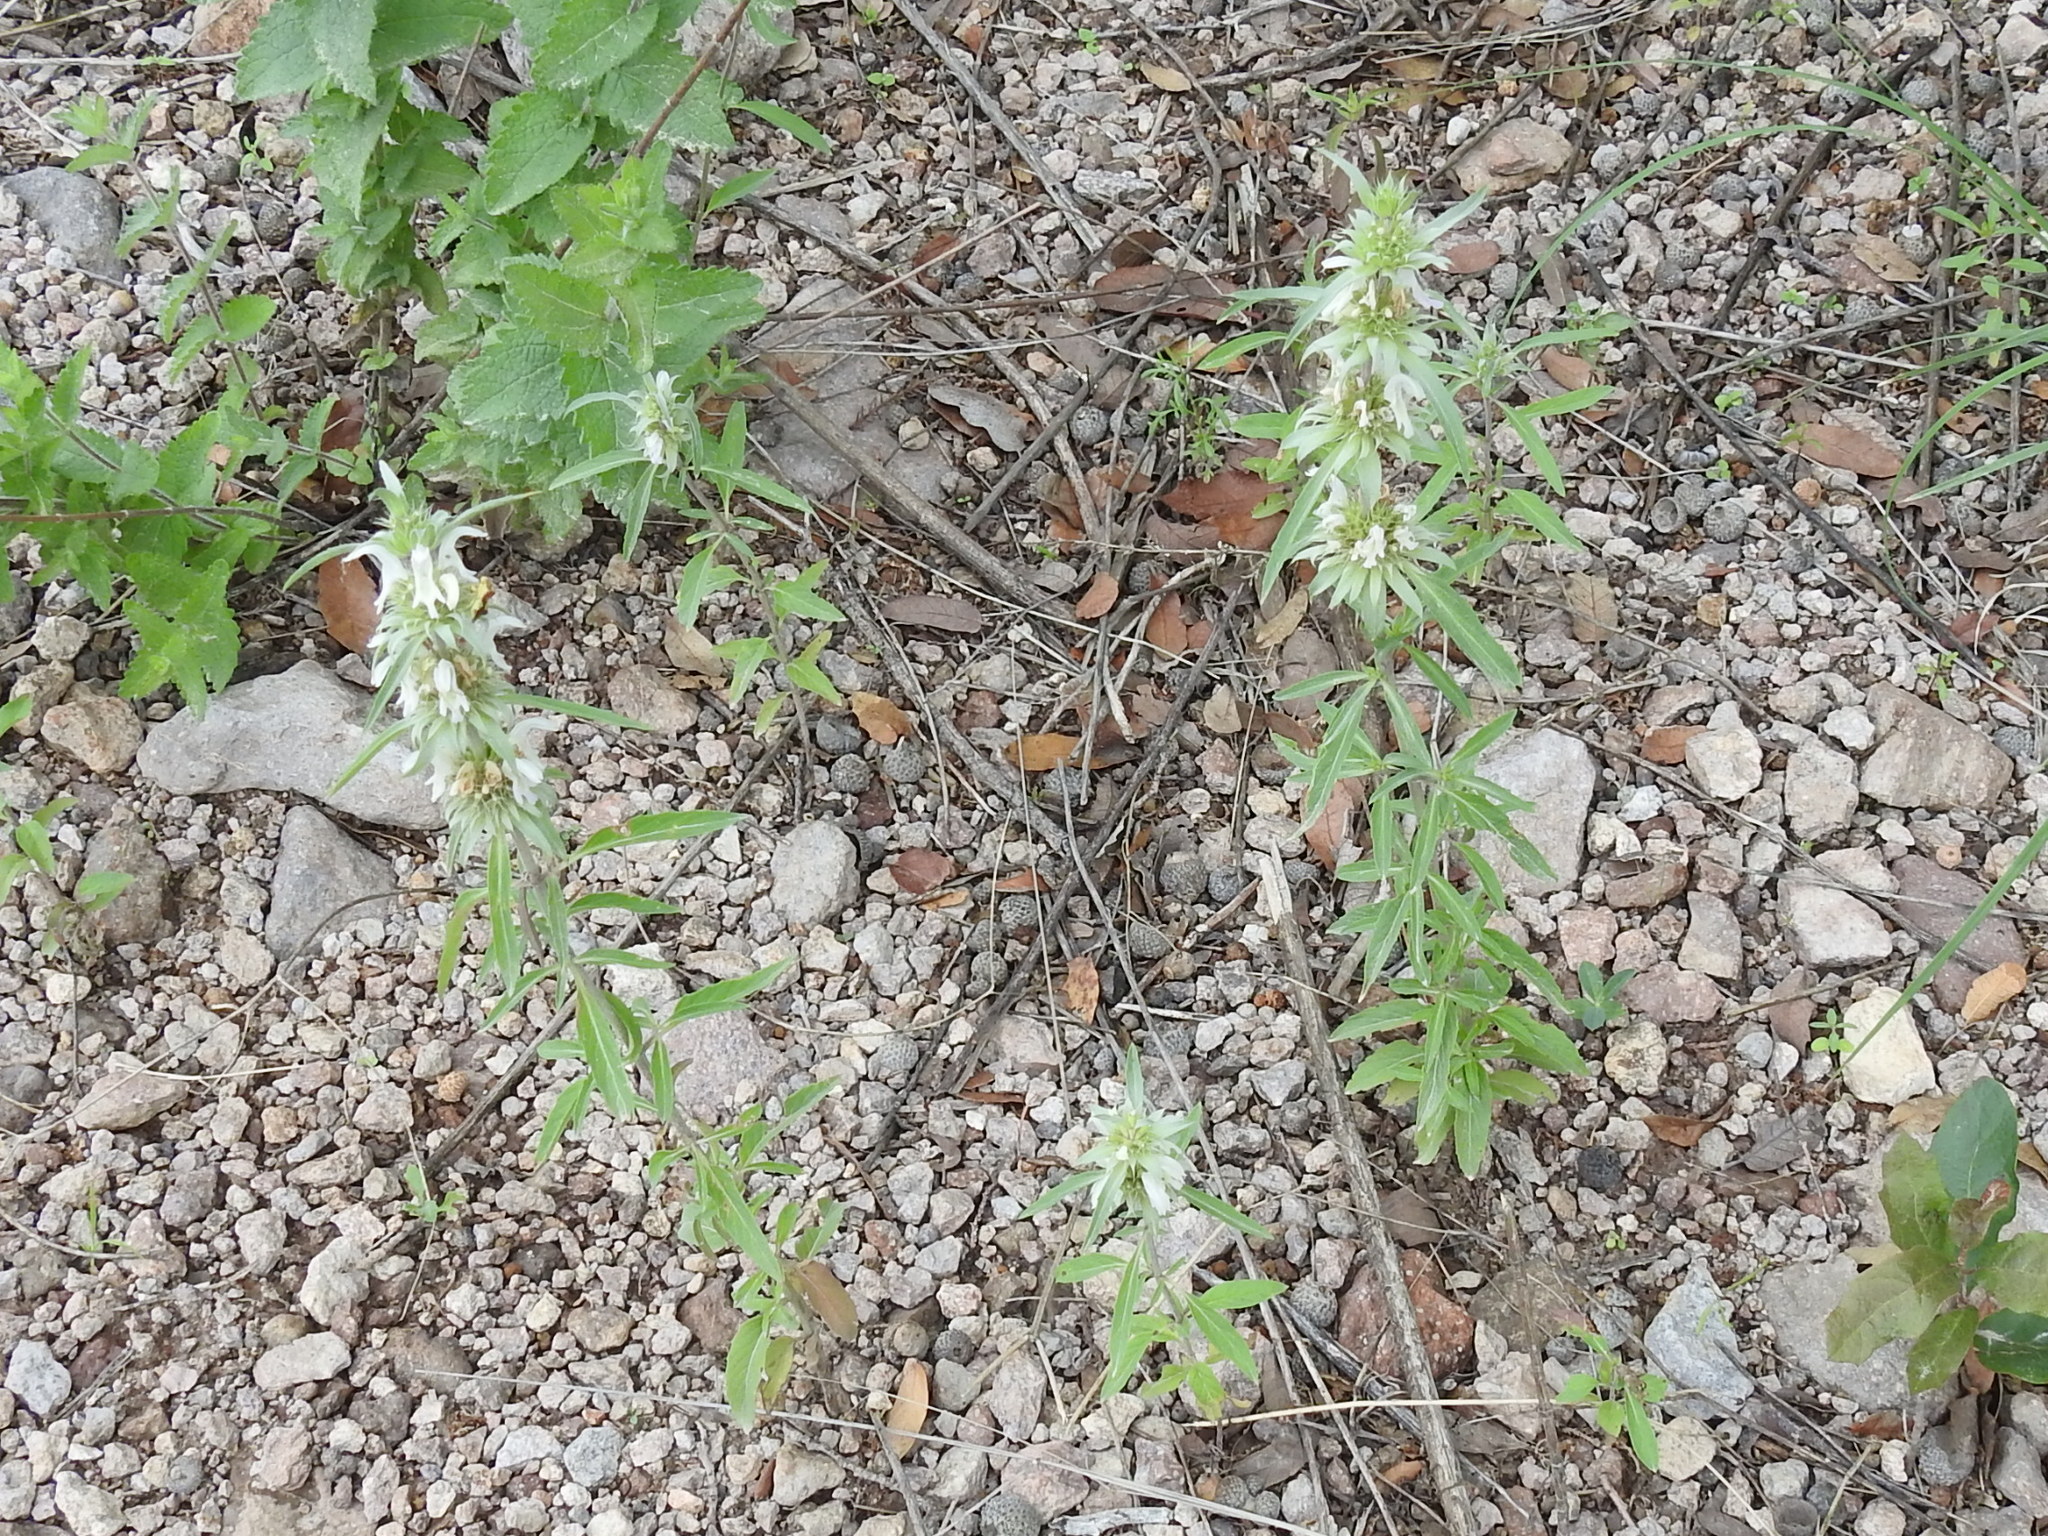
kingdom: Plantae
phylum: Tracheophyta
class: Magnoliopsida
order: Lamiales
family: Lamiaceae
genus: Monarda
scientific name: Monarda citriodora
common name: Lemon beebalm
